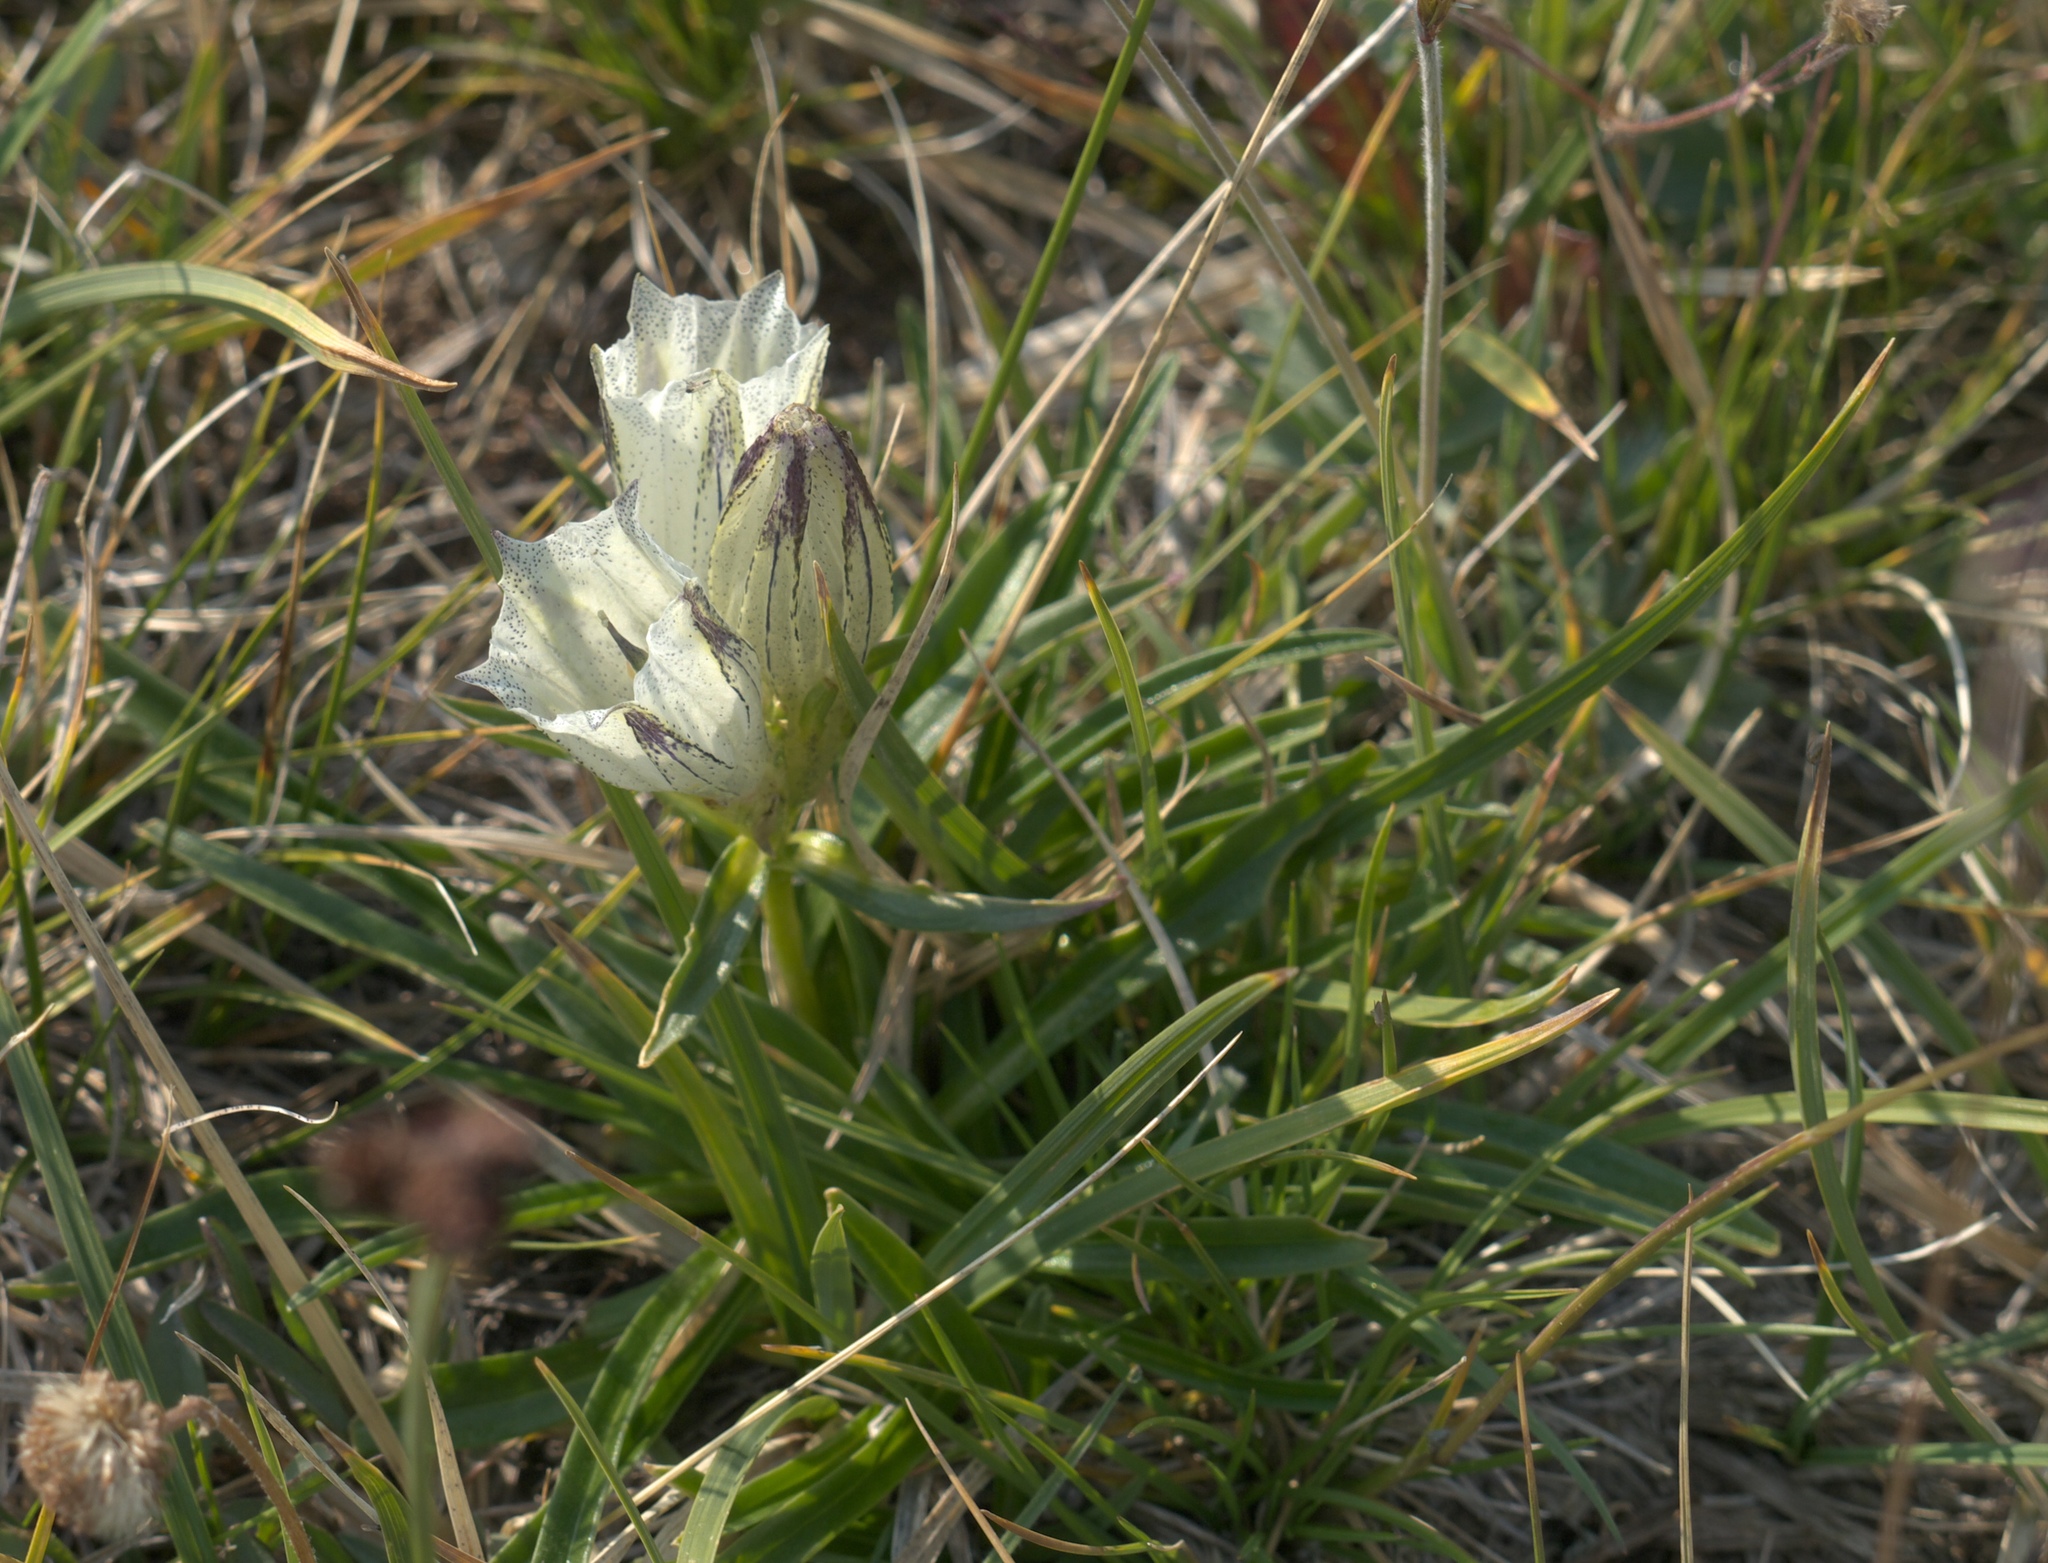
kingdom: Plantae
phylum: Tracheophyta
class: Magnoliopsida
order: Gentianales
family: Gentianaceae
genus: Gentiana
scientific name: Gentiana algida
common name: Arctic gentian
